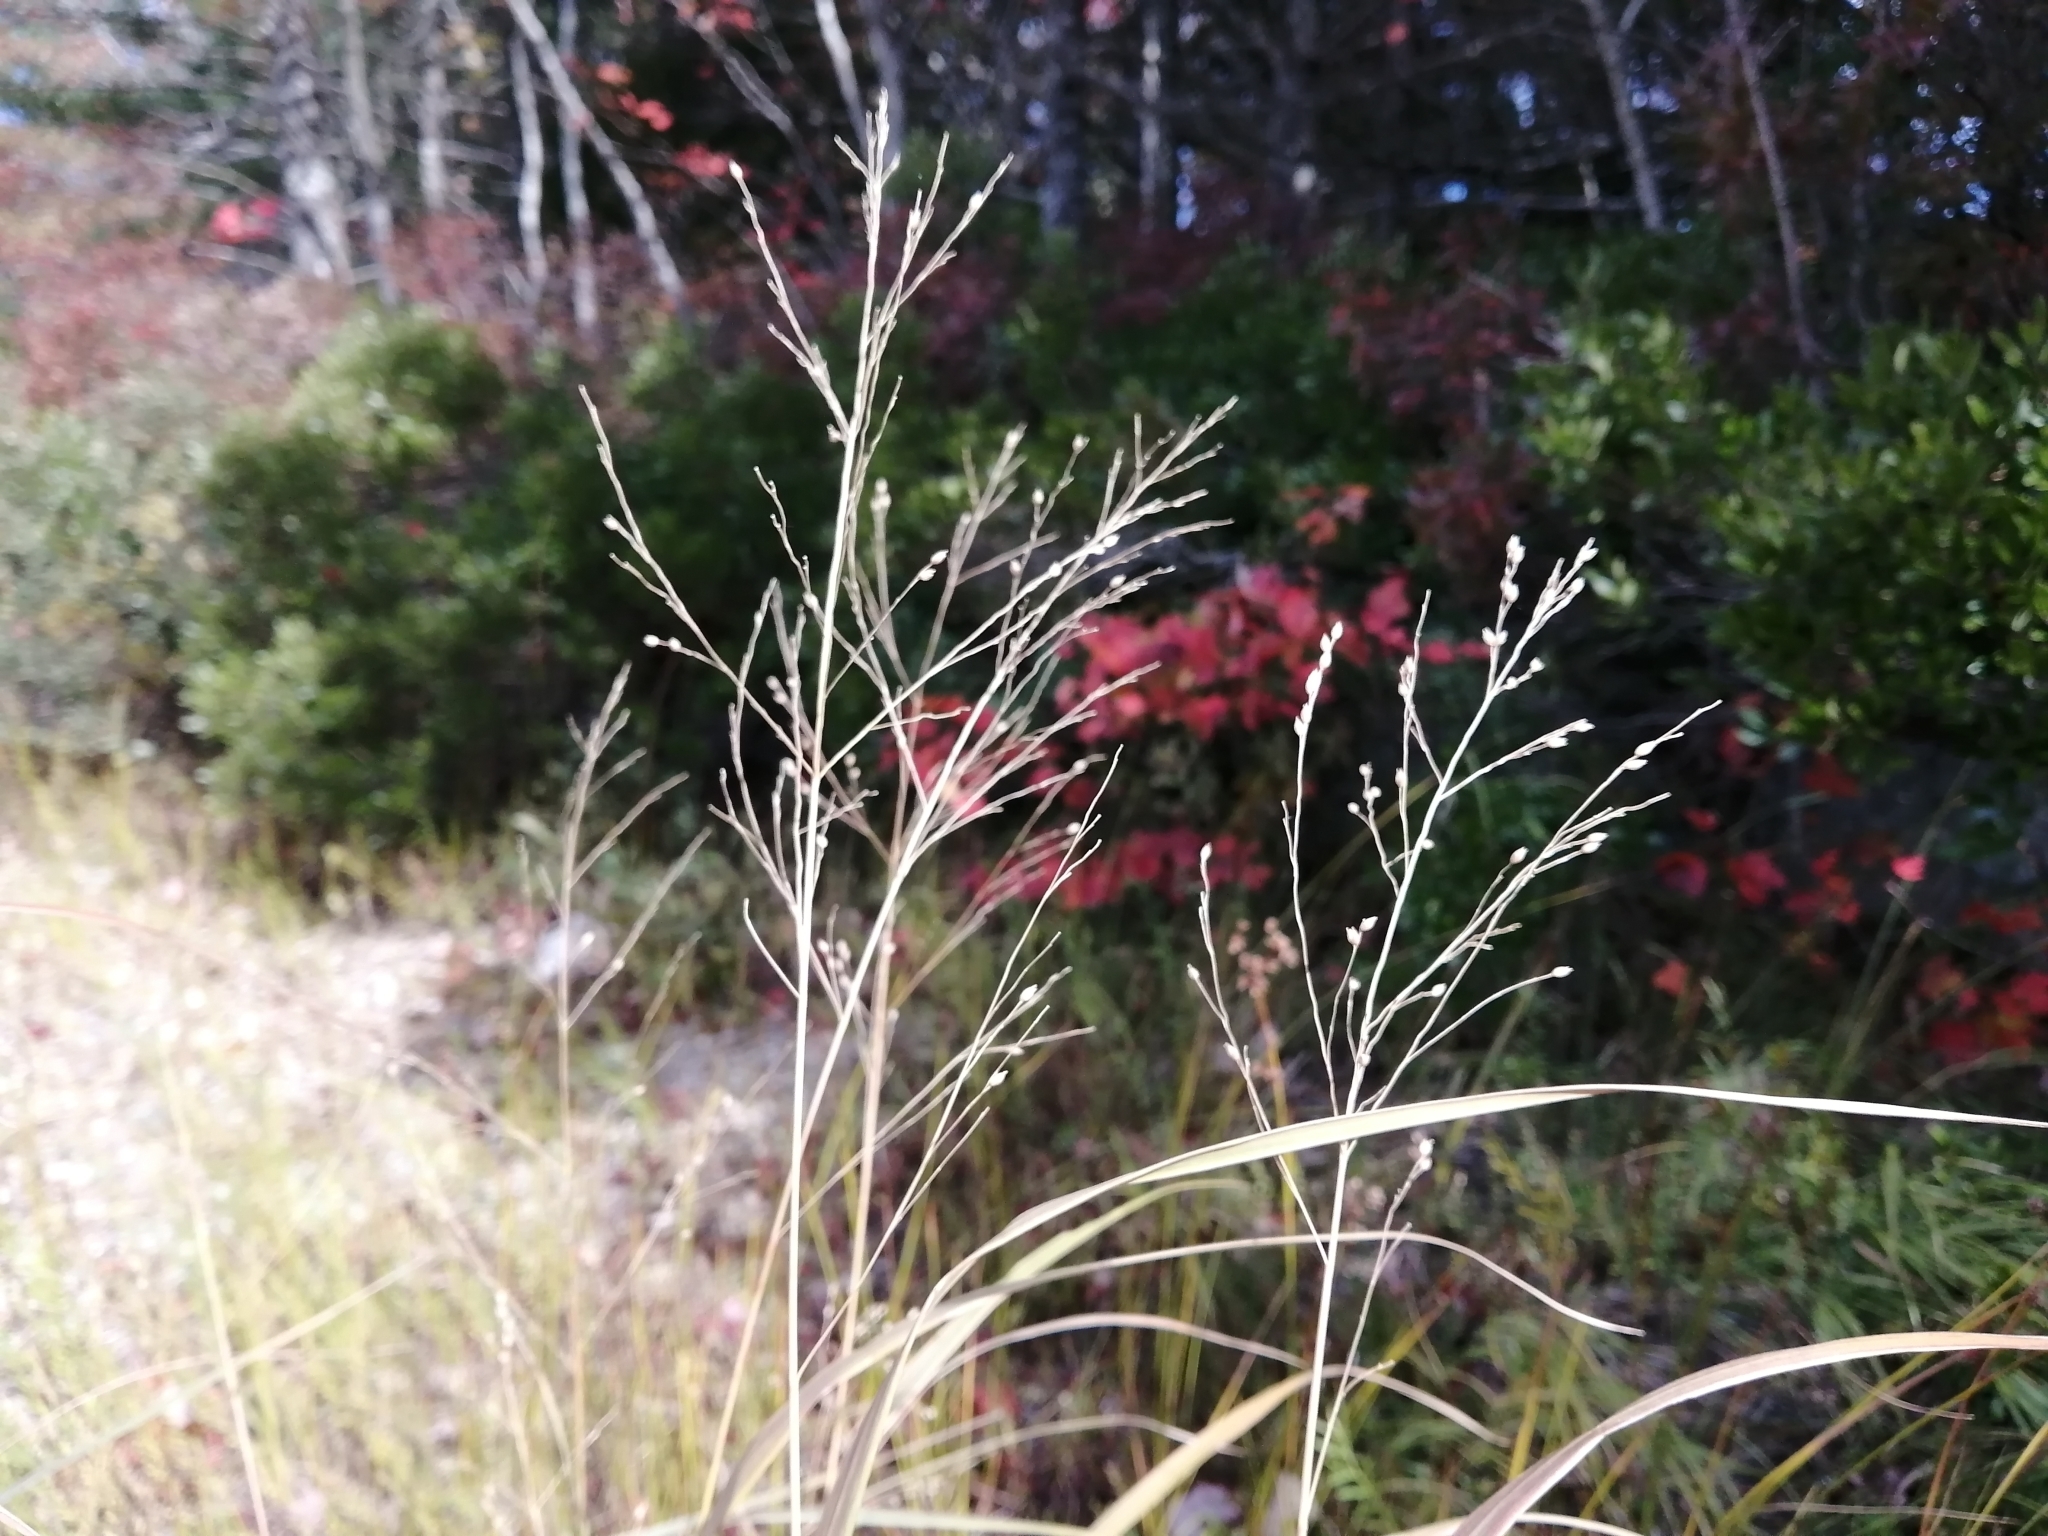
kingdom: Plantae
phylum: Tracheophyta
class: Liliopsida
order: Poales
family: Poaceae
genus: Panicum
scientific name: Panicum virgatum
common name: Switchgrass
